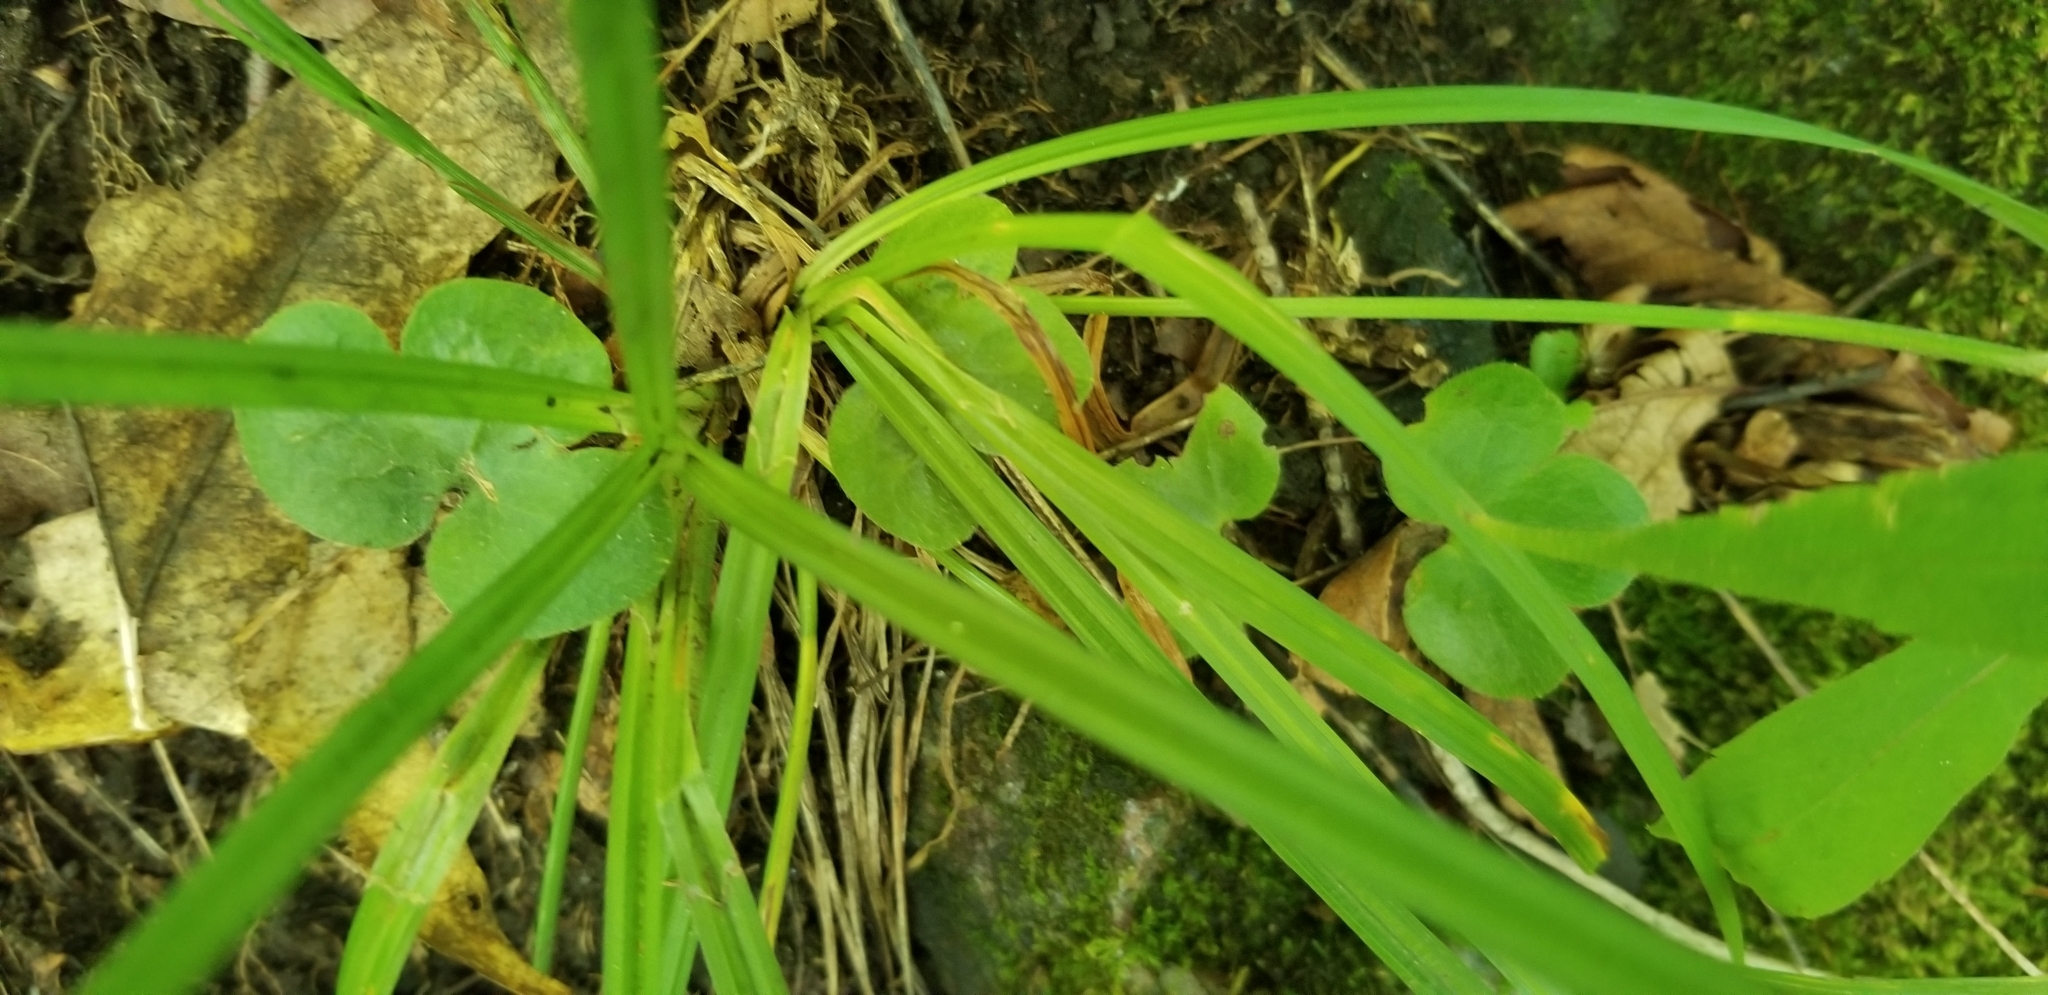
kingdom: Plantae
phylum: Tracheophyta
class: Magnoliopsida
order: Ranunculales
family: Ranunculaceae
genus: Hepatica
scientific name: Hepatica americana
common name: American hepatica
